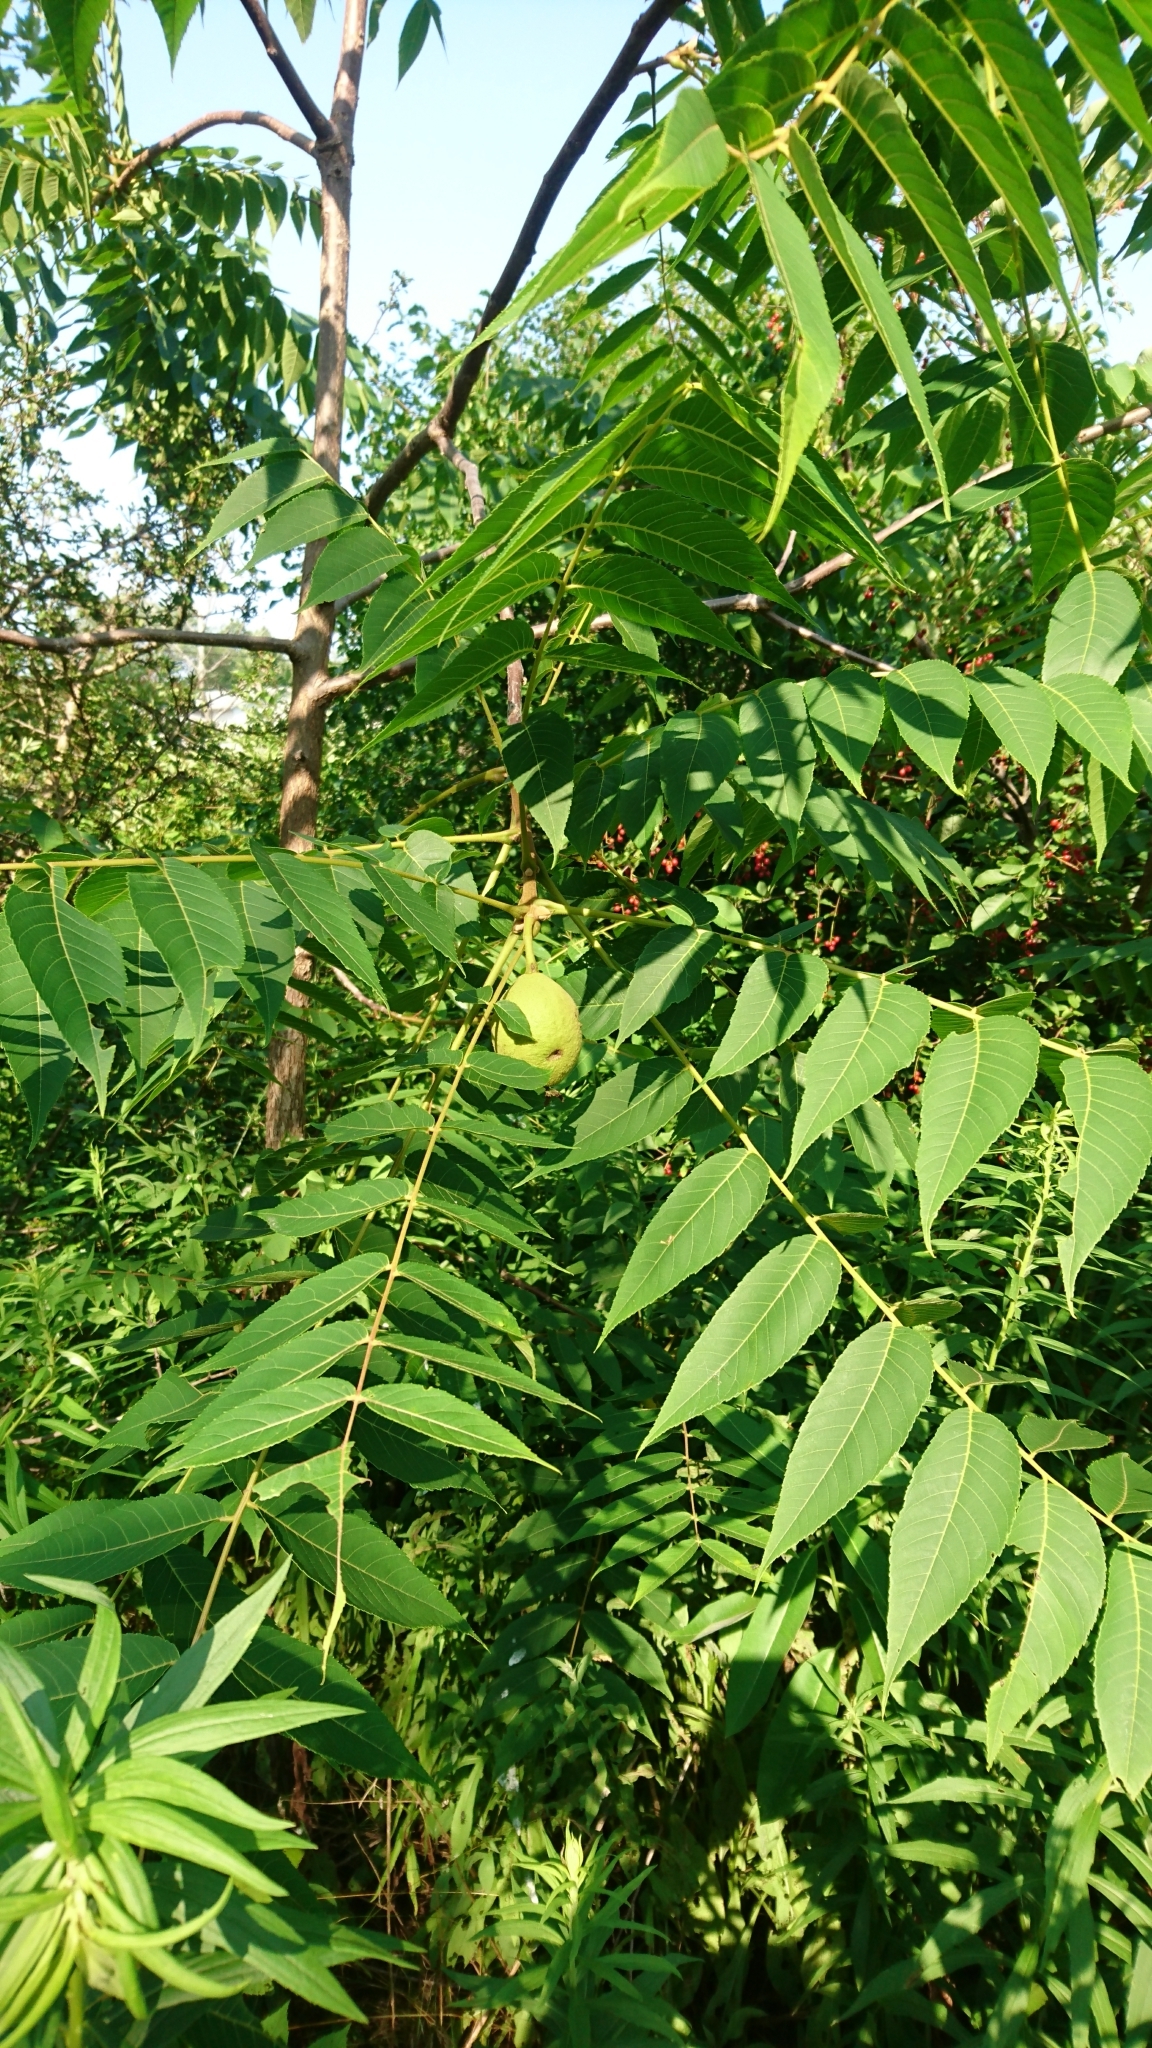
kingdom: Plantae
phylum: Tracheophyta
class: Magnoliopsida
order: Fagales
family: Juglandaceae
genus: Juglans
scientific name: Juglans nigra
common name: Black walnut
